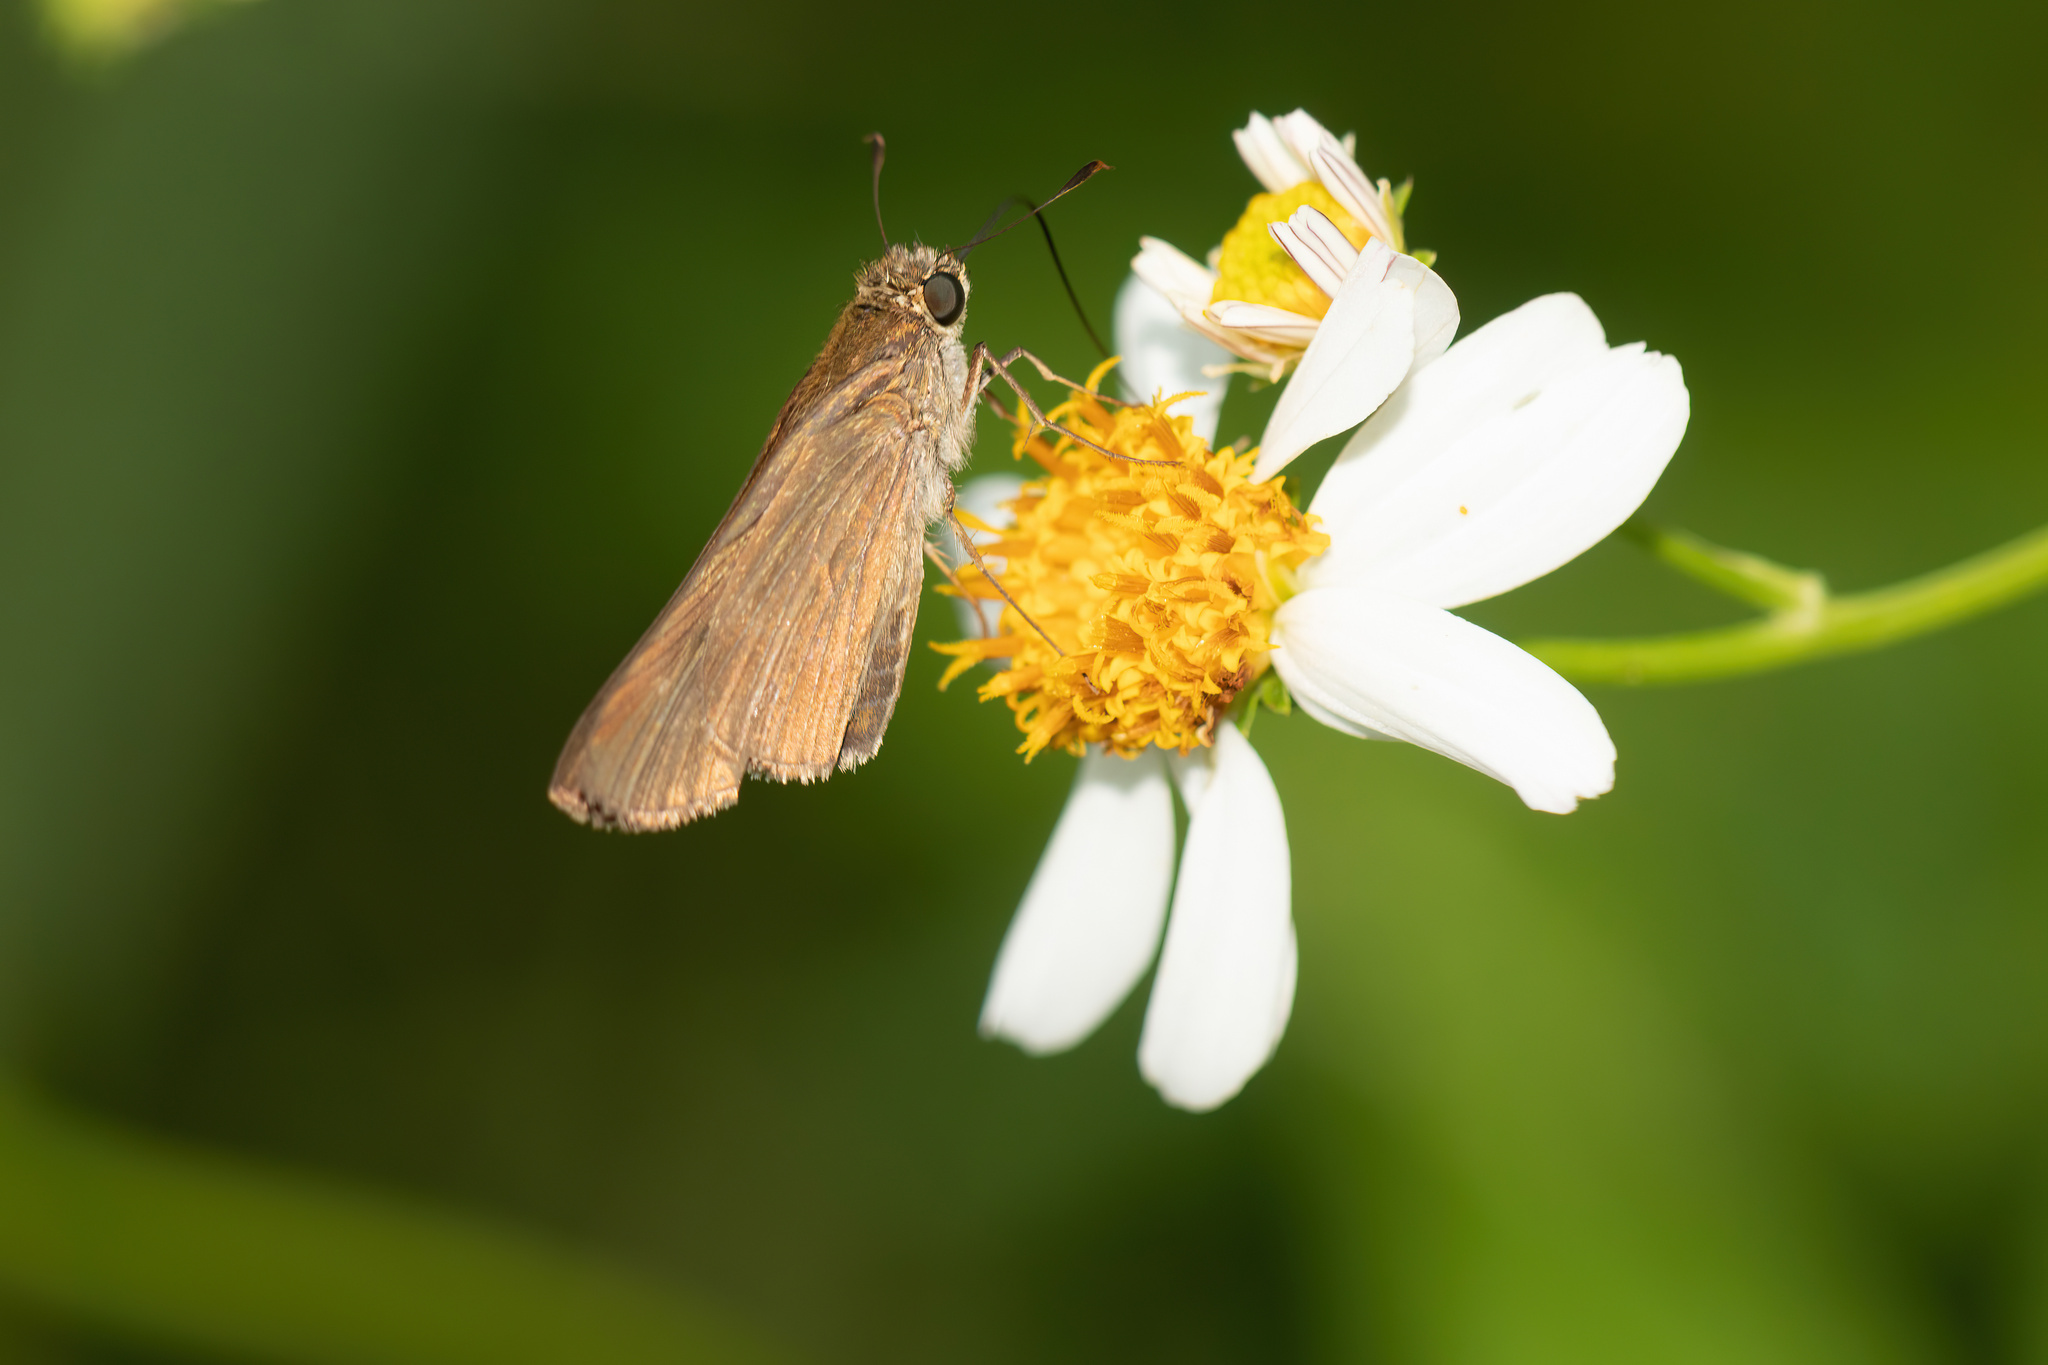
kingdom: Animalia
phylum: Arthropoda
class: Insecta
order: Lepidoptera
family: Hesperiidae
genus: Panoquina
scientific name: Panoquina ocola
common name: Ocola skipper
